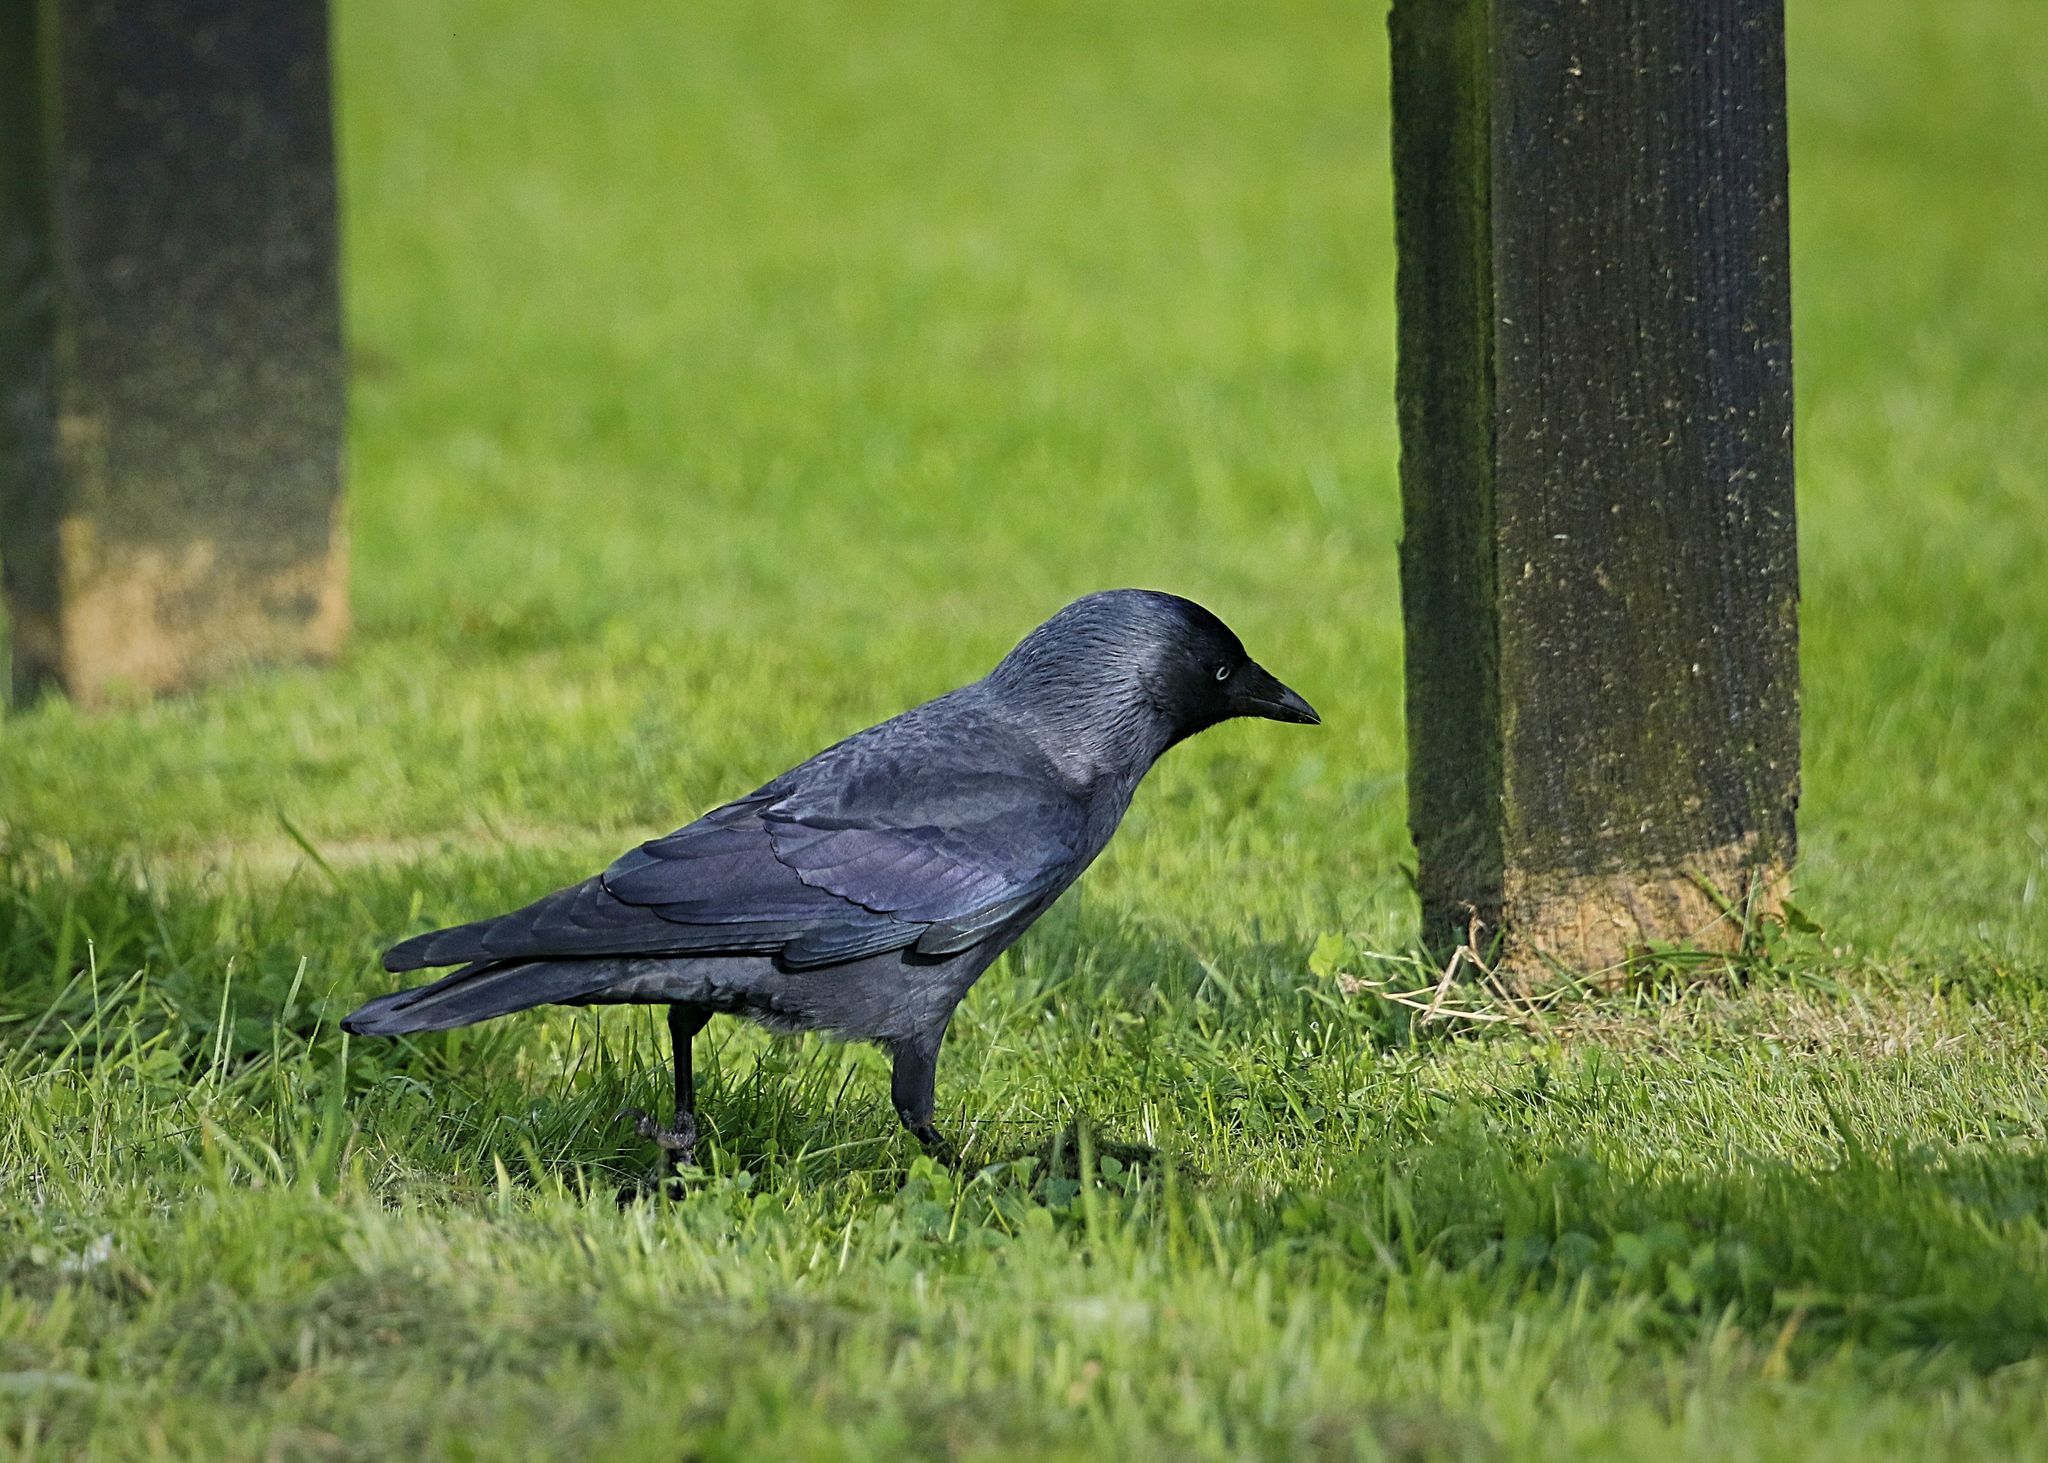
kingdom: Animalia
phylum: Chordata
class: Aves
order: Passeriformes
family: Corvidae
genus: Coloeus
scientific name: Coloeus monedula
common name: Western jackdaw
